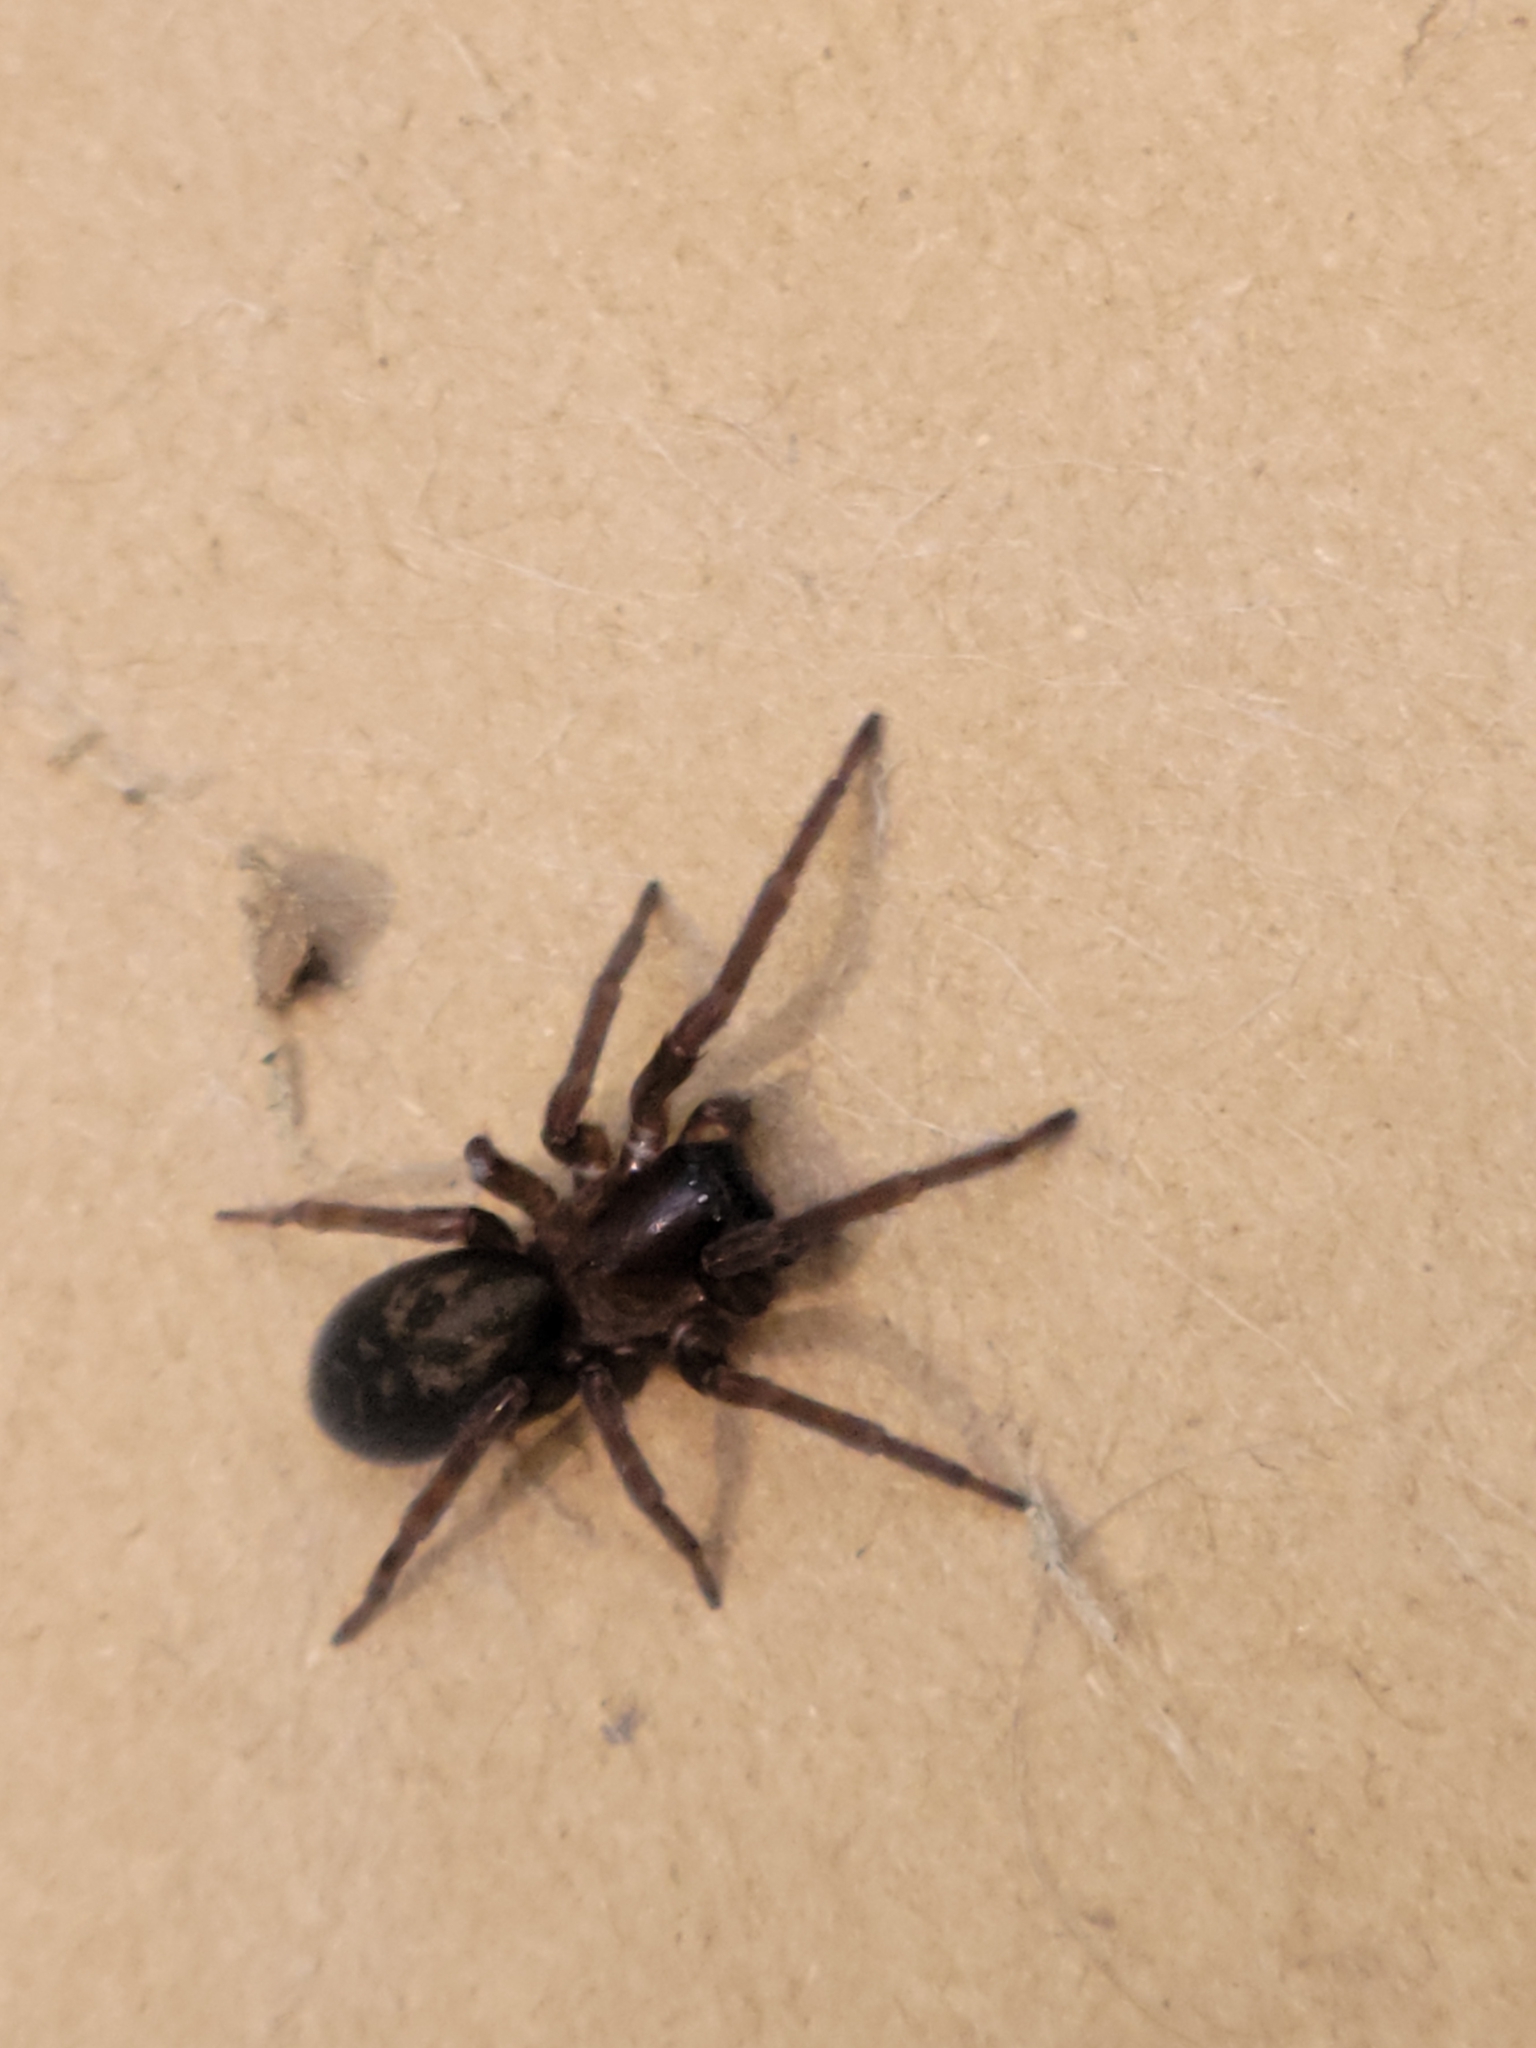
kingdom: Animalia
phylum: Arthropoda
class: Arachnida
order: Araneae
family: Amaurobiidae
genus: Amaurobius
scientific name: Amaurobius ferox
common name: Black laceweaver
